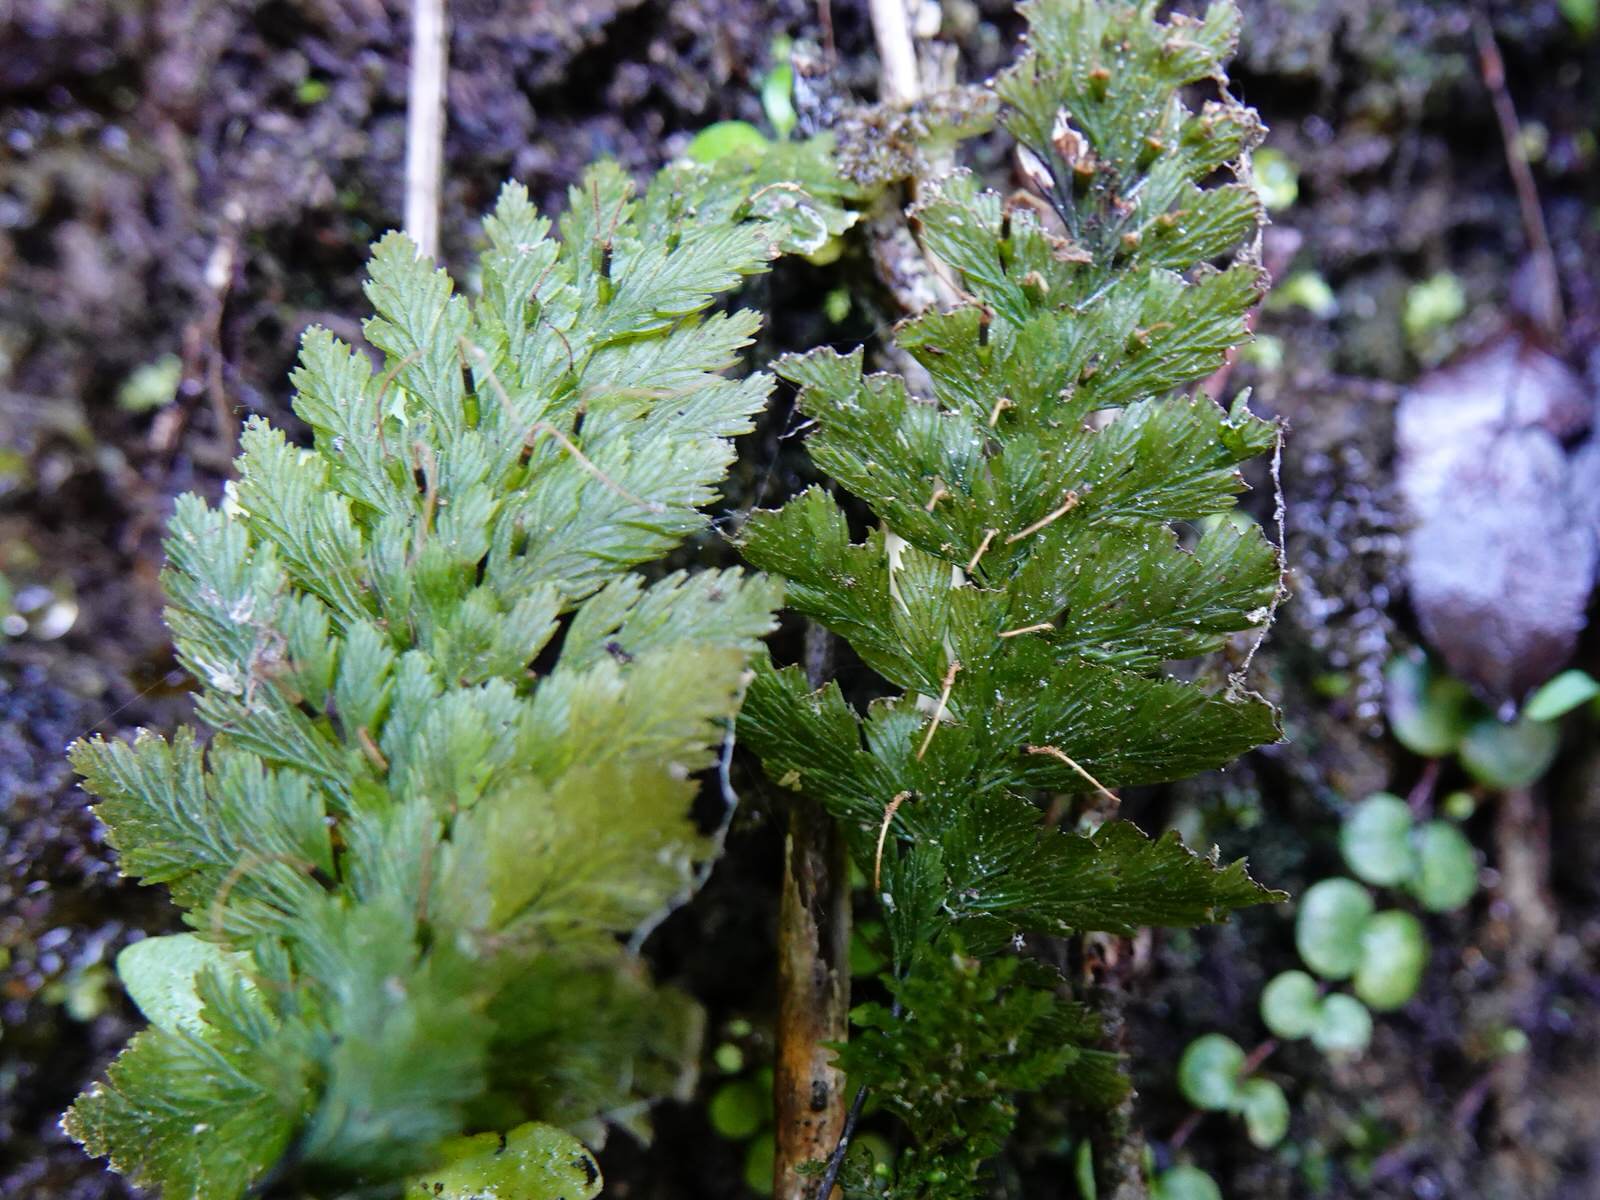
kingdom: Plantae
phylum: Tracheophyta
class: Polypodiopsida
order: Hymenophyllales
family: Hymenophyllaceae
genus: Abrodictyum
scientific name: Abrodictyum elongatum
